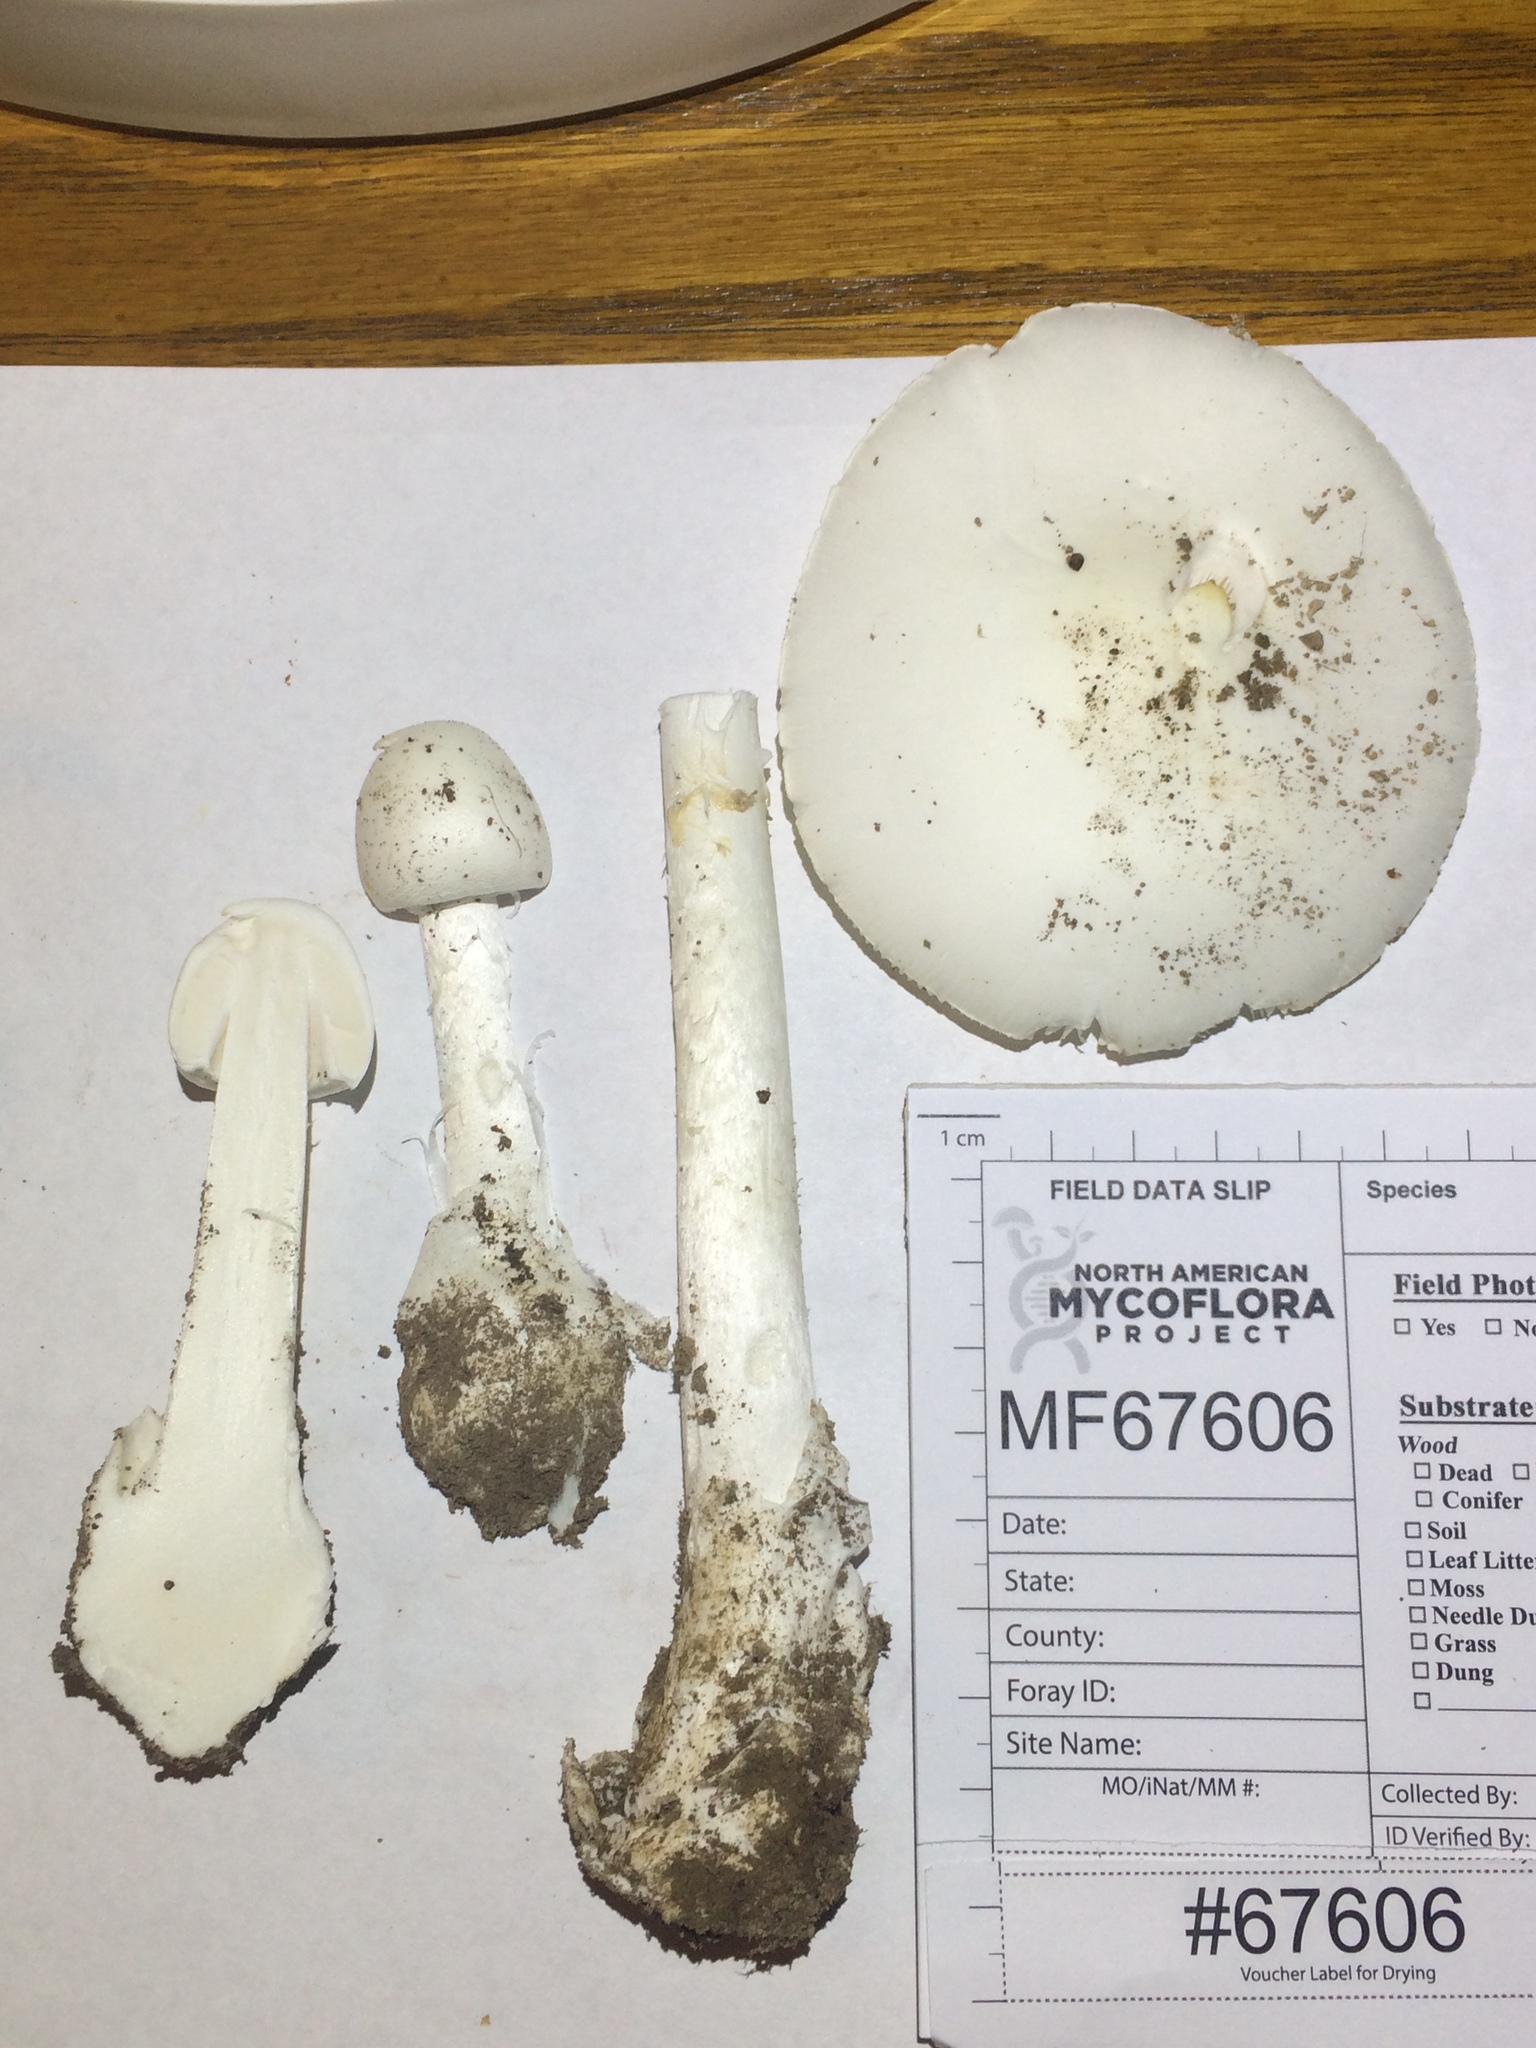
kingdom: Fungi
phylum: Basidiomycota
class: Agaricomycetes
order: Agaricales
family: Amanitaceae
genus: Amanita
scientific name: Amanita suballiacea
